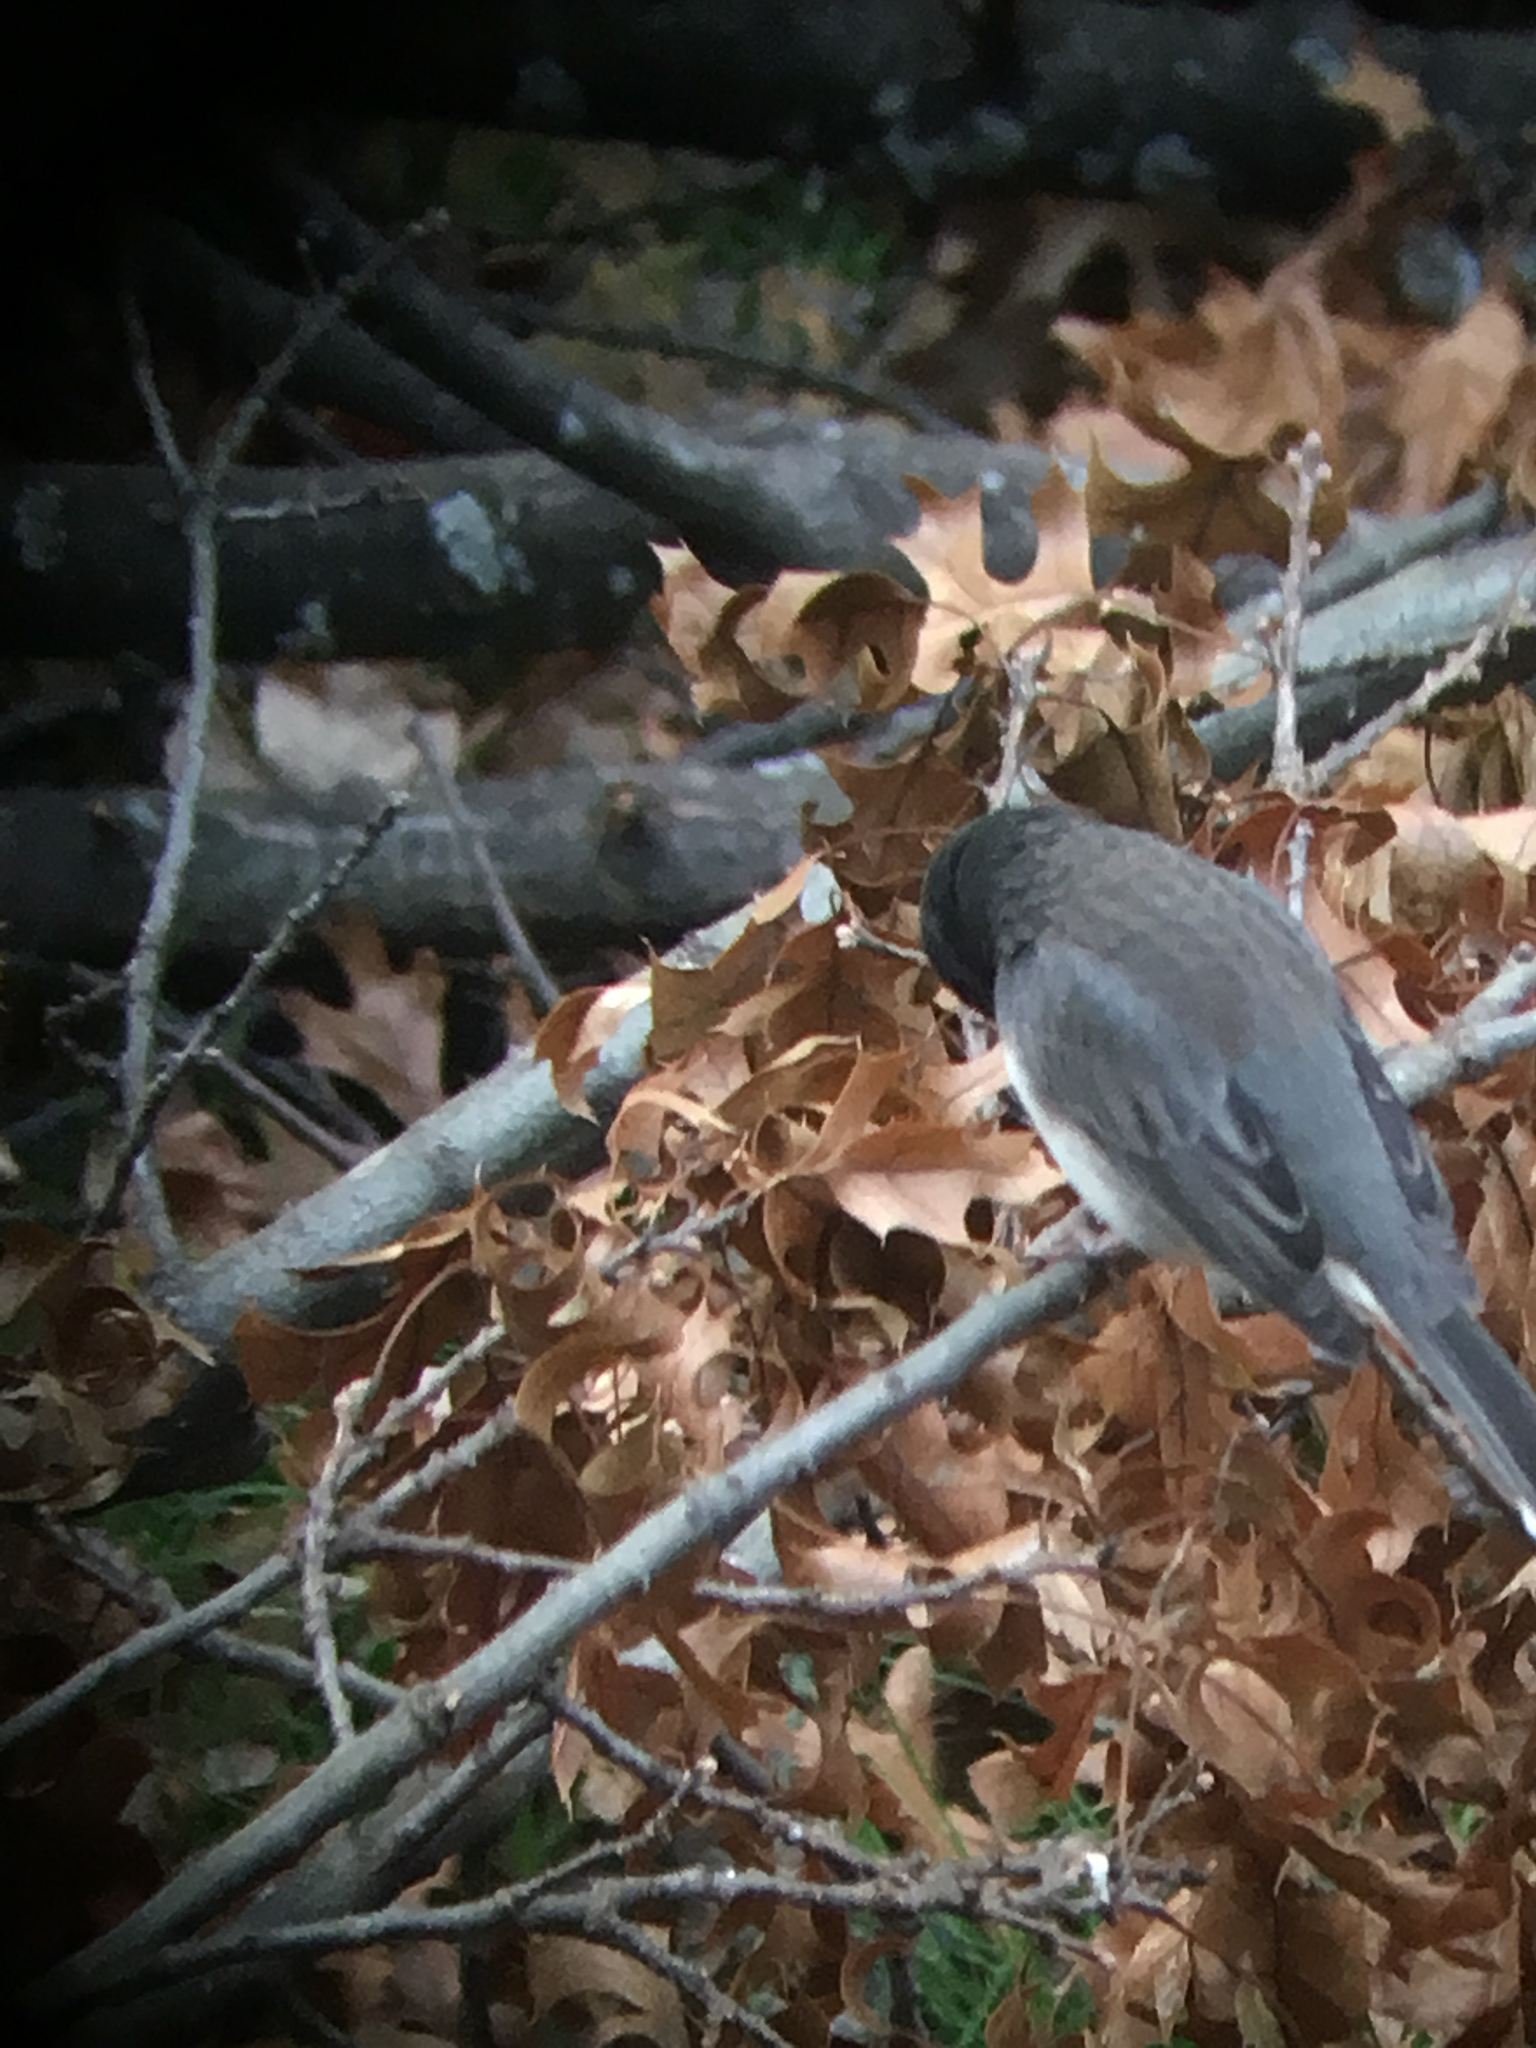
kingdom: Animalia
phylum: Chordata
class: Aves
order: Passeriformes
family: Passerellidae
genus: Junco
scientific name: Junco hyemalis
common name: Dark-eyed junco
